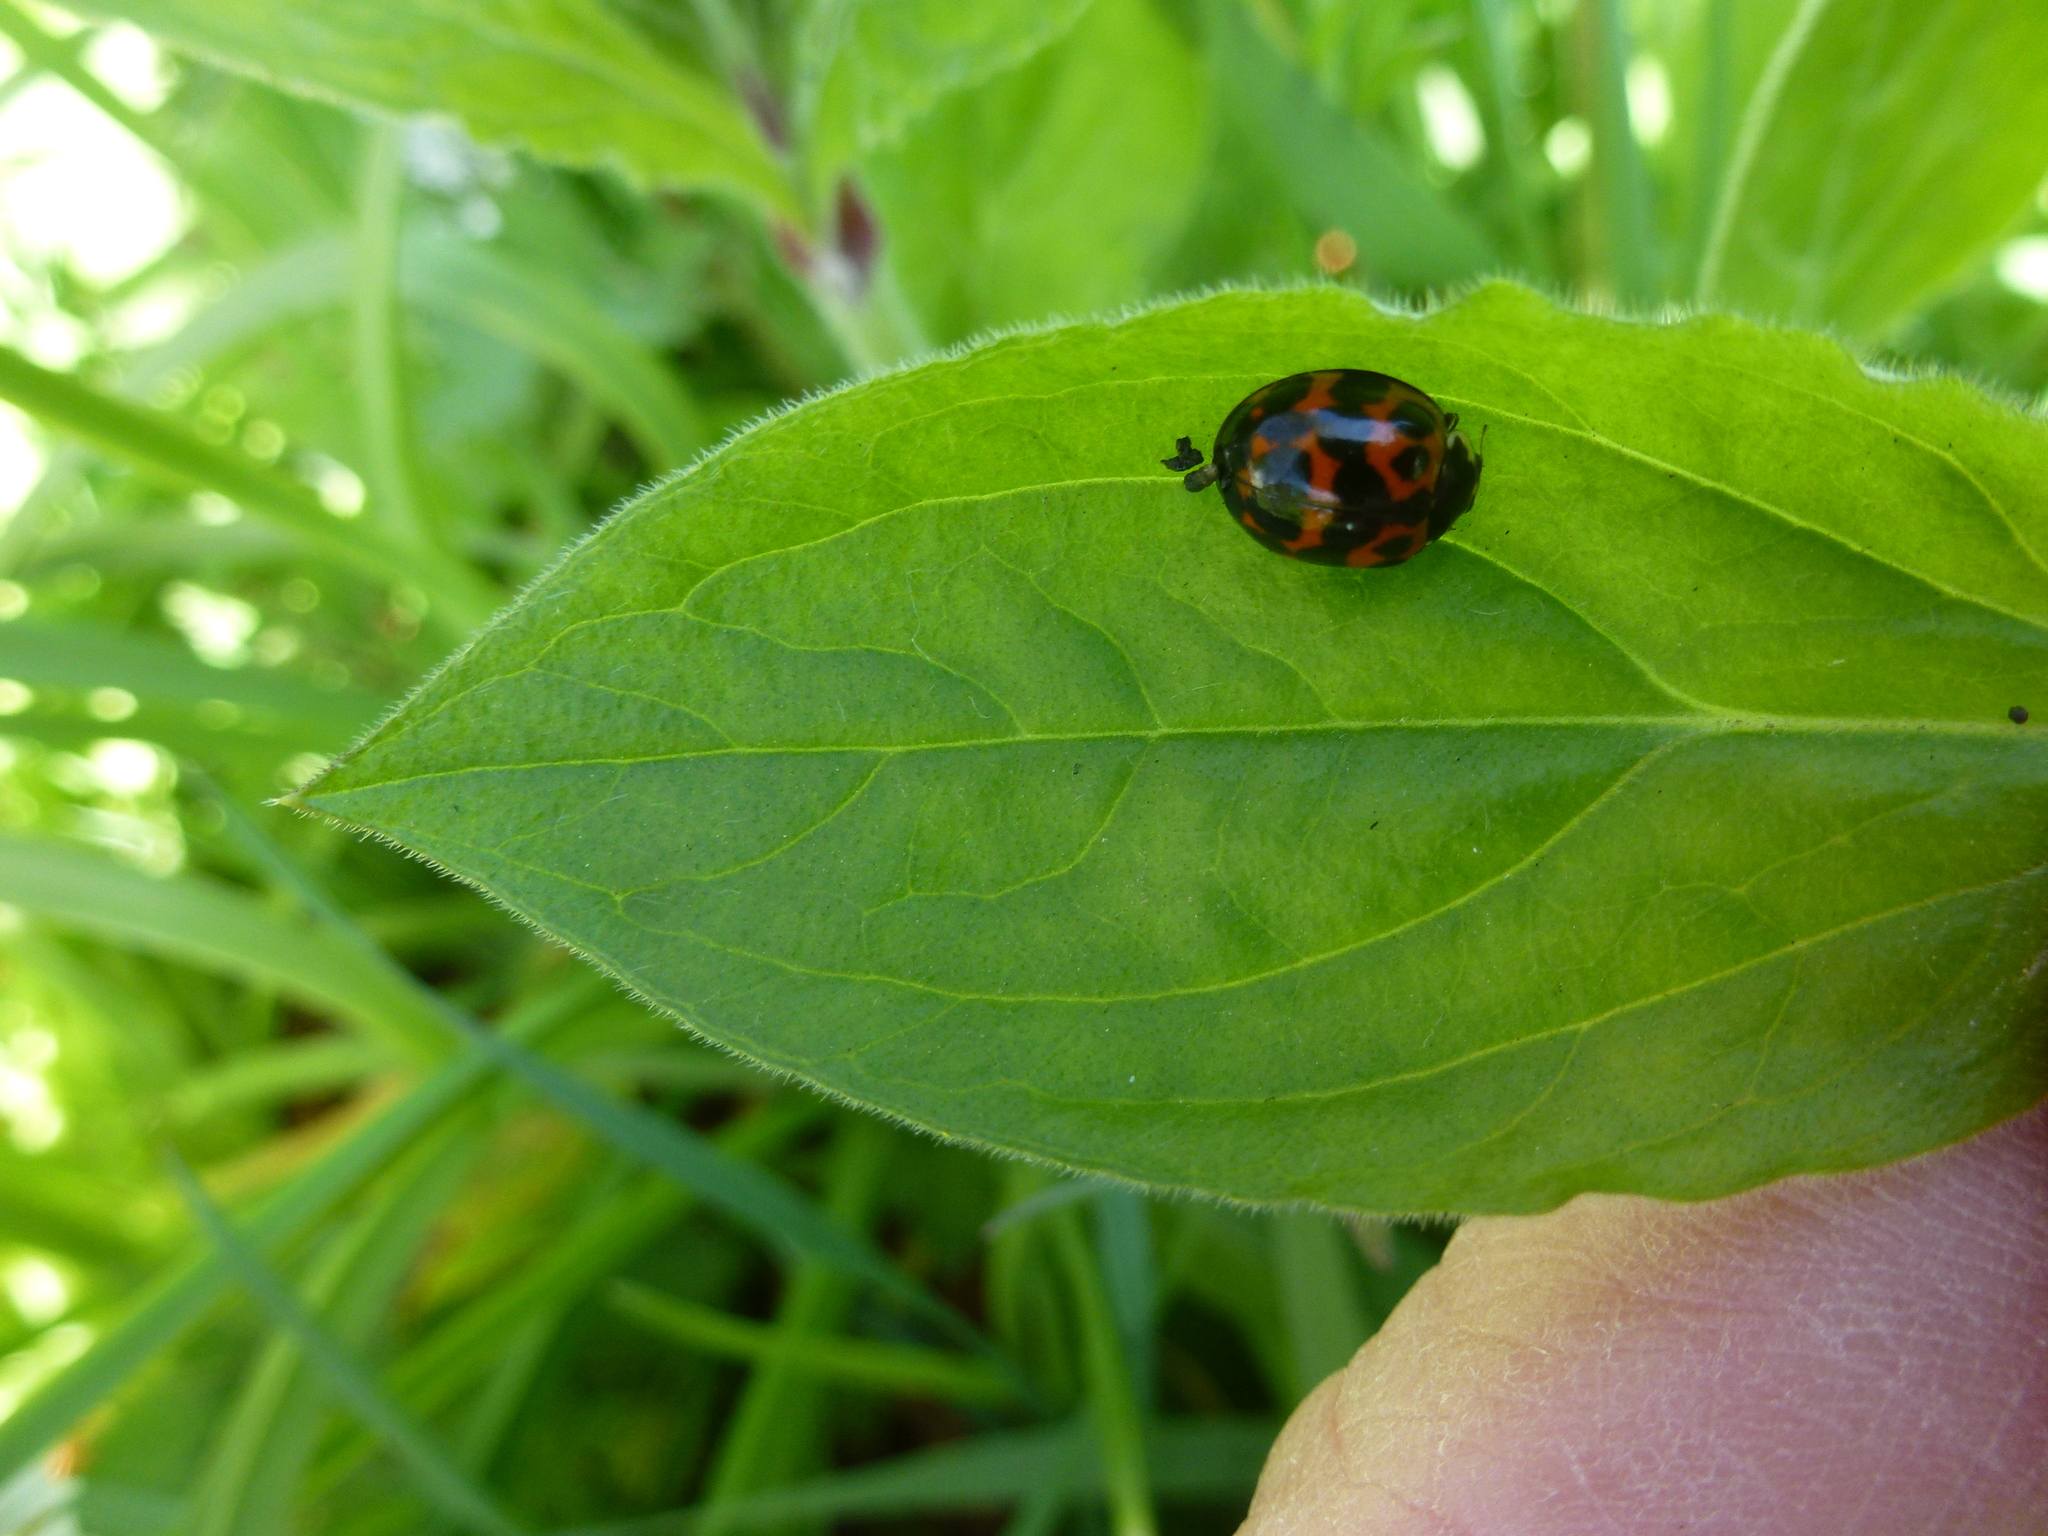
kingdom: Animalia
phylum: Arthropoda
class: Insecta
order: Coleoptera
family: Coccinellidae
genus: Harmonia
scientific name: Harmonia axyridis
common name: Harlequin ladybird
